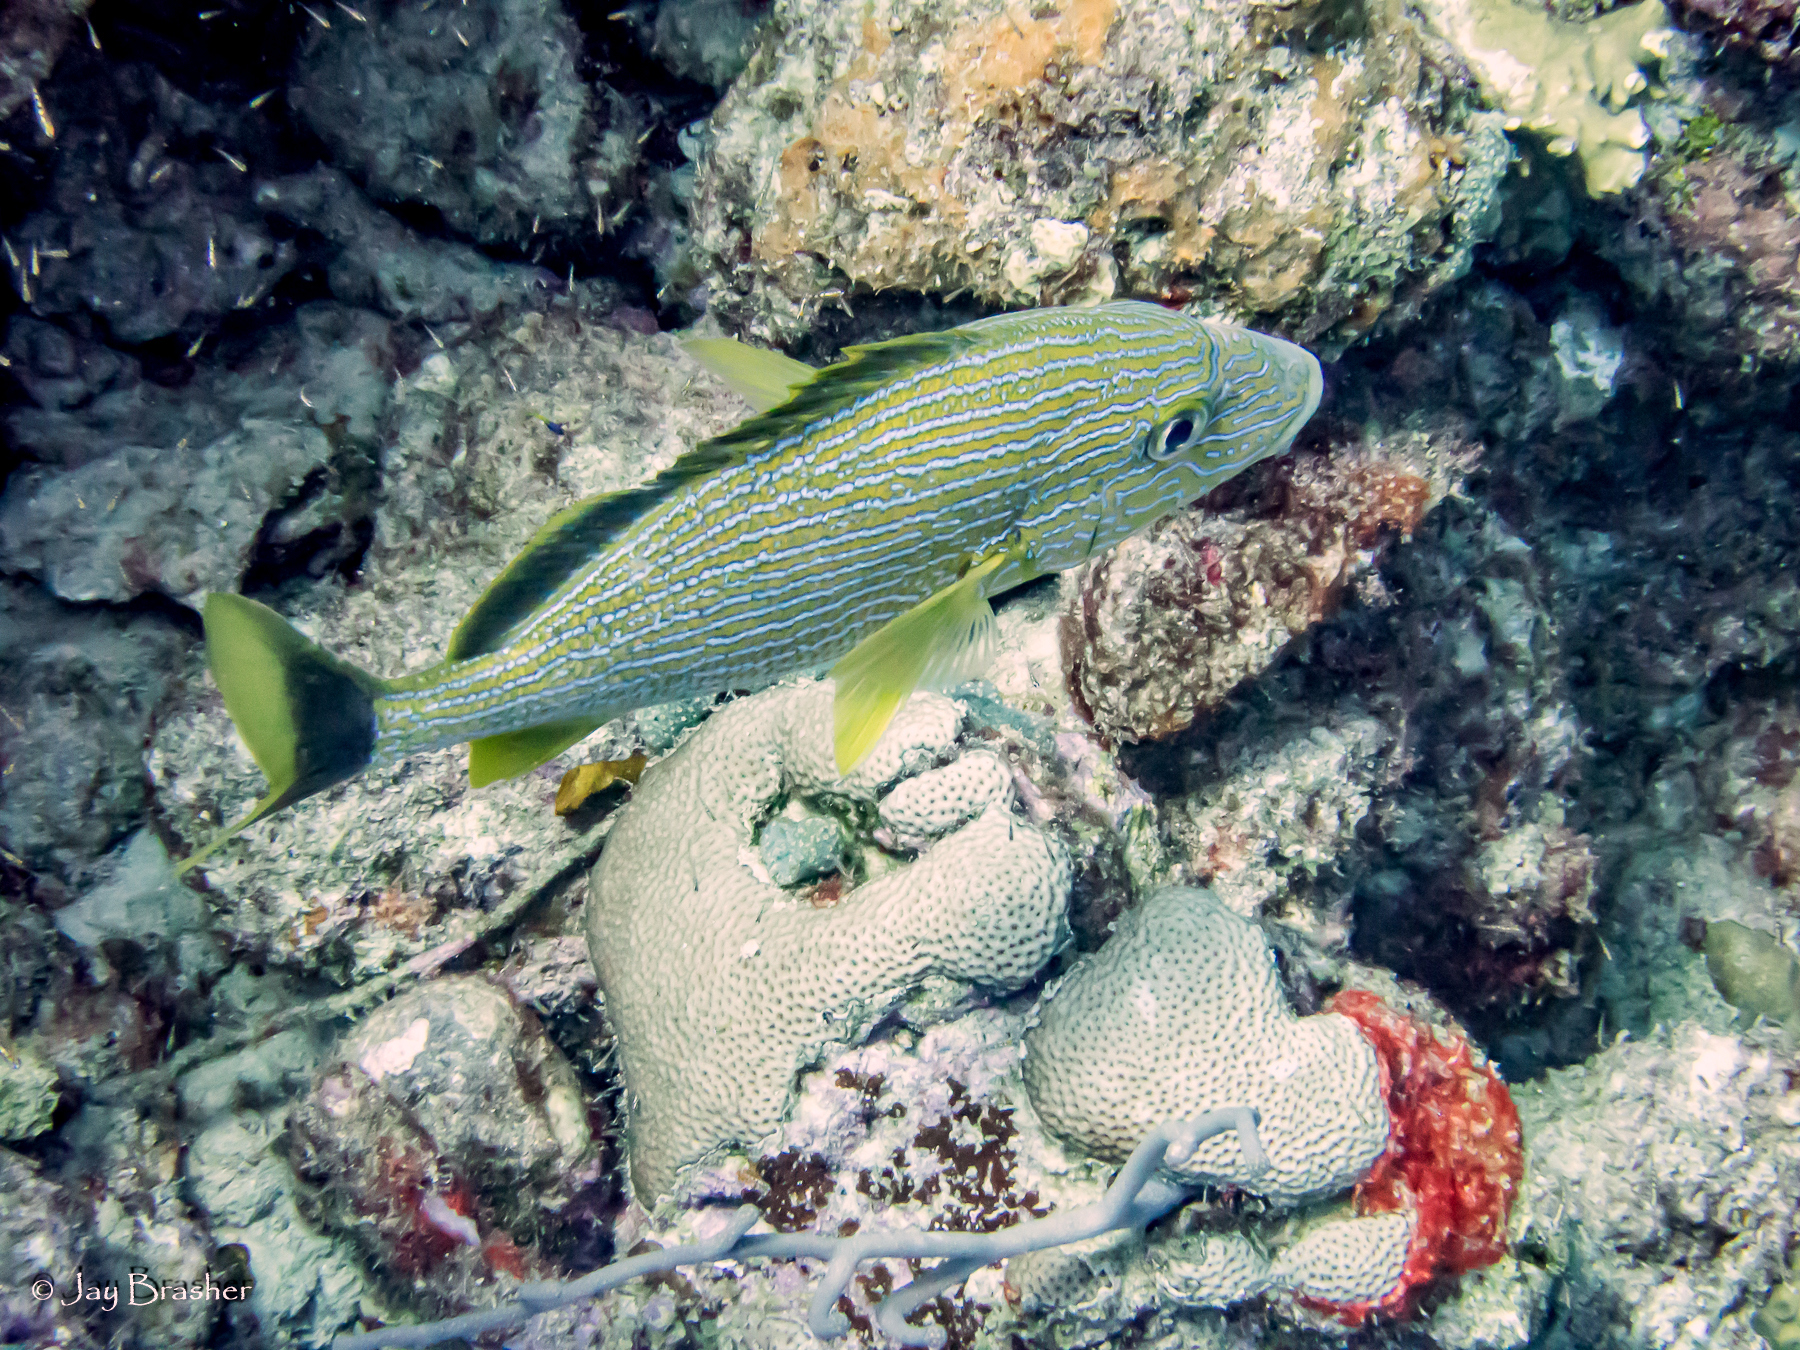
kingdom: Animalia
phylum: Chordata
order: Perciformes
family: Haemulidae
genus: Haemulon
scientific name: Haemulon sciurus
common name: Bluestriped grunt
